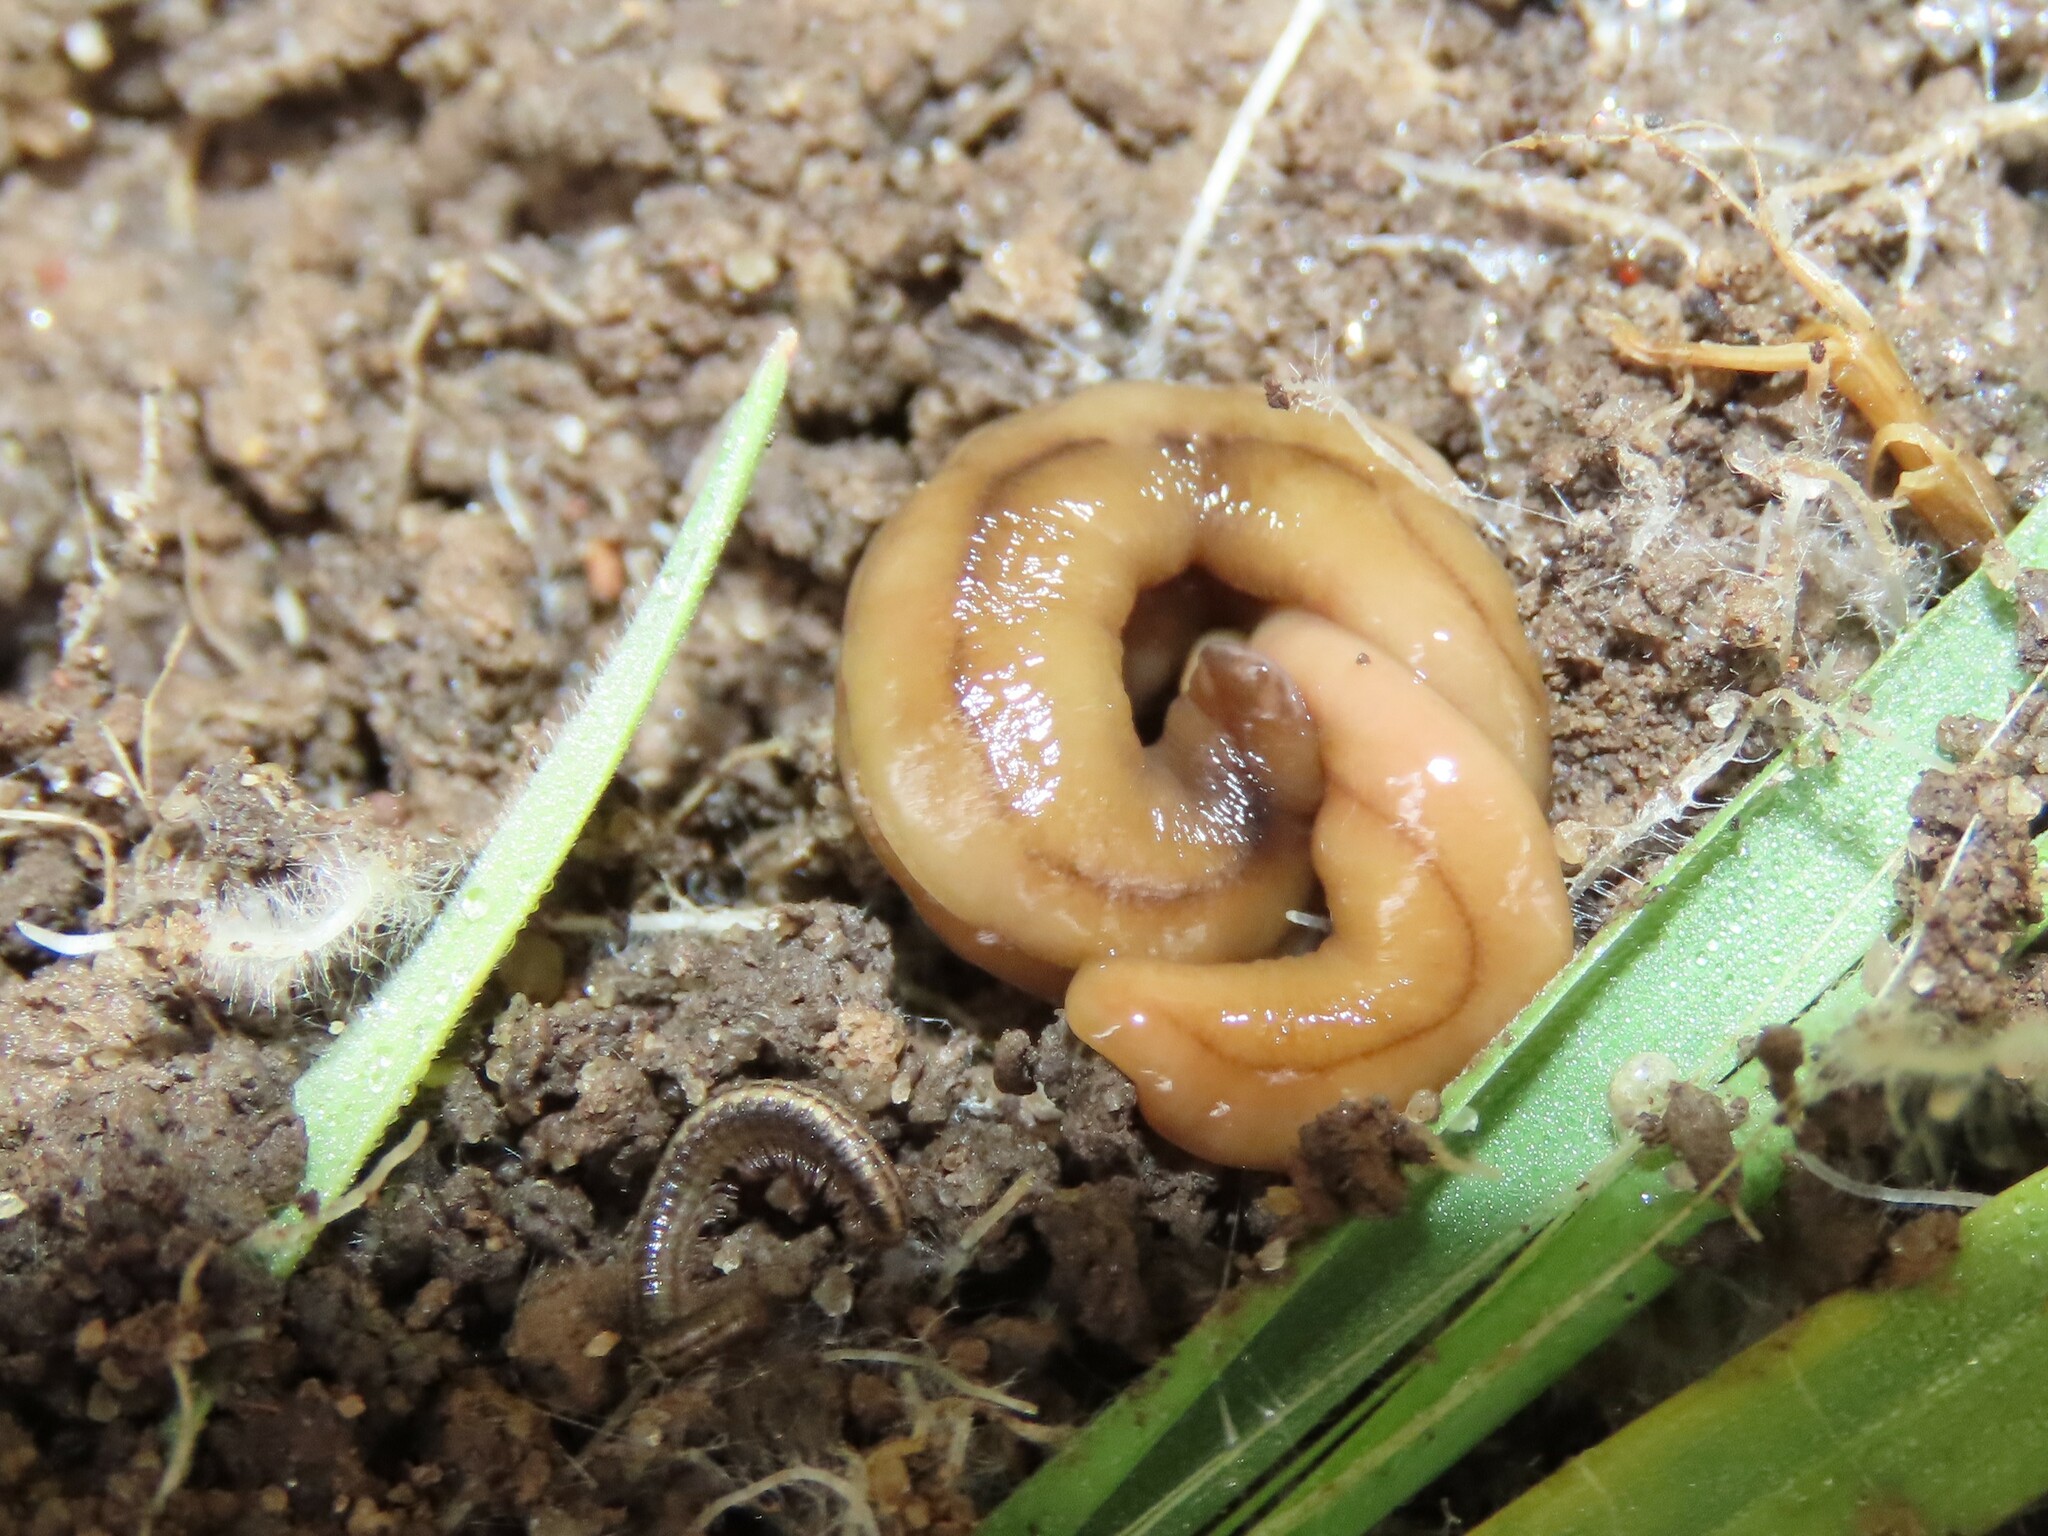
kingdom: Animalia
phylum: Platyhelminthes
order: Tricladida
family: Geoplanidae
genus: Bipalium
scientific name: Bipalium adventitium
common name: Land planarian
